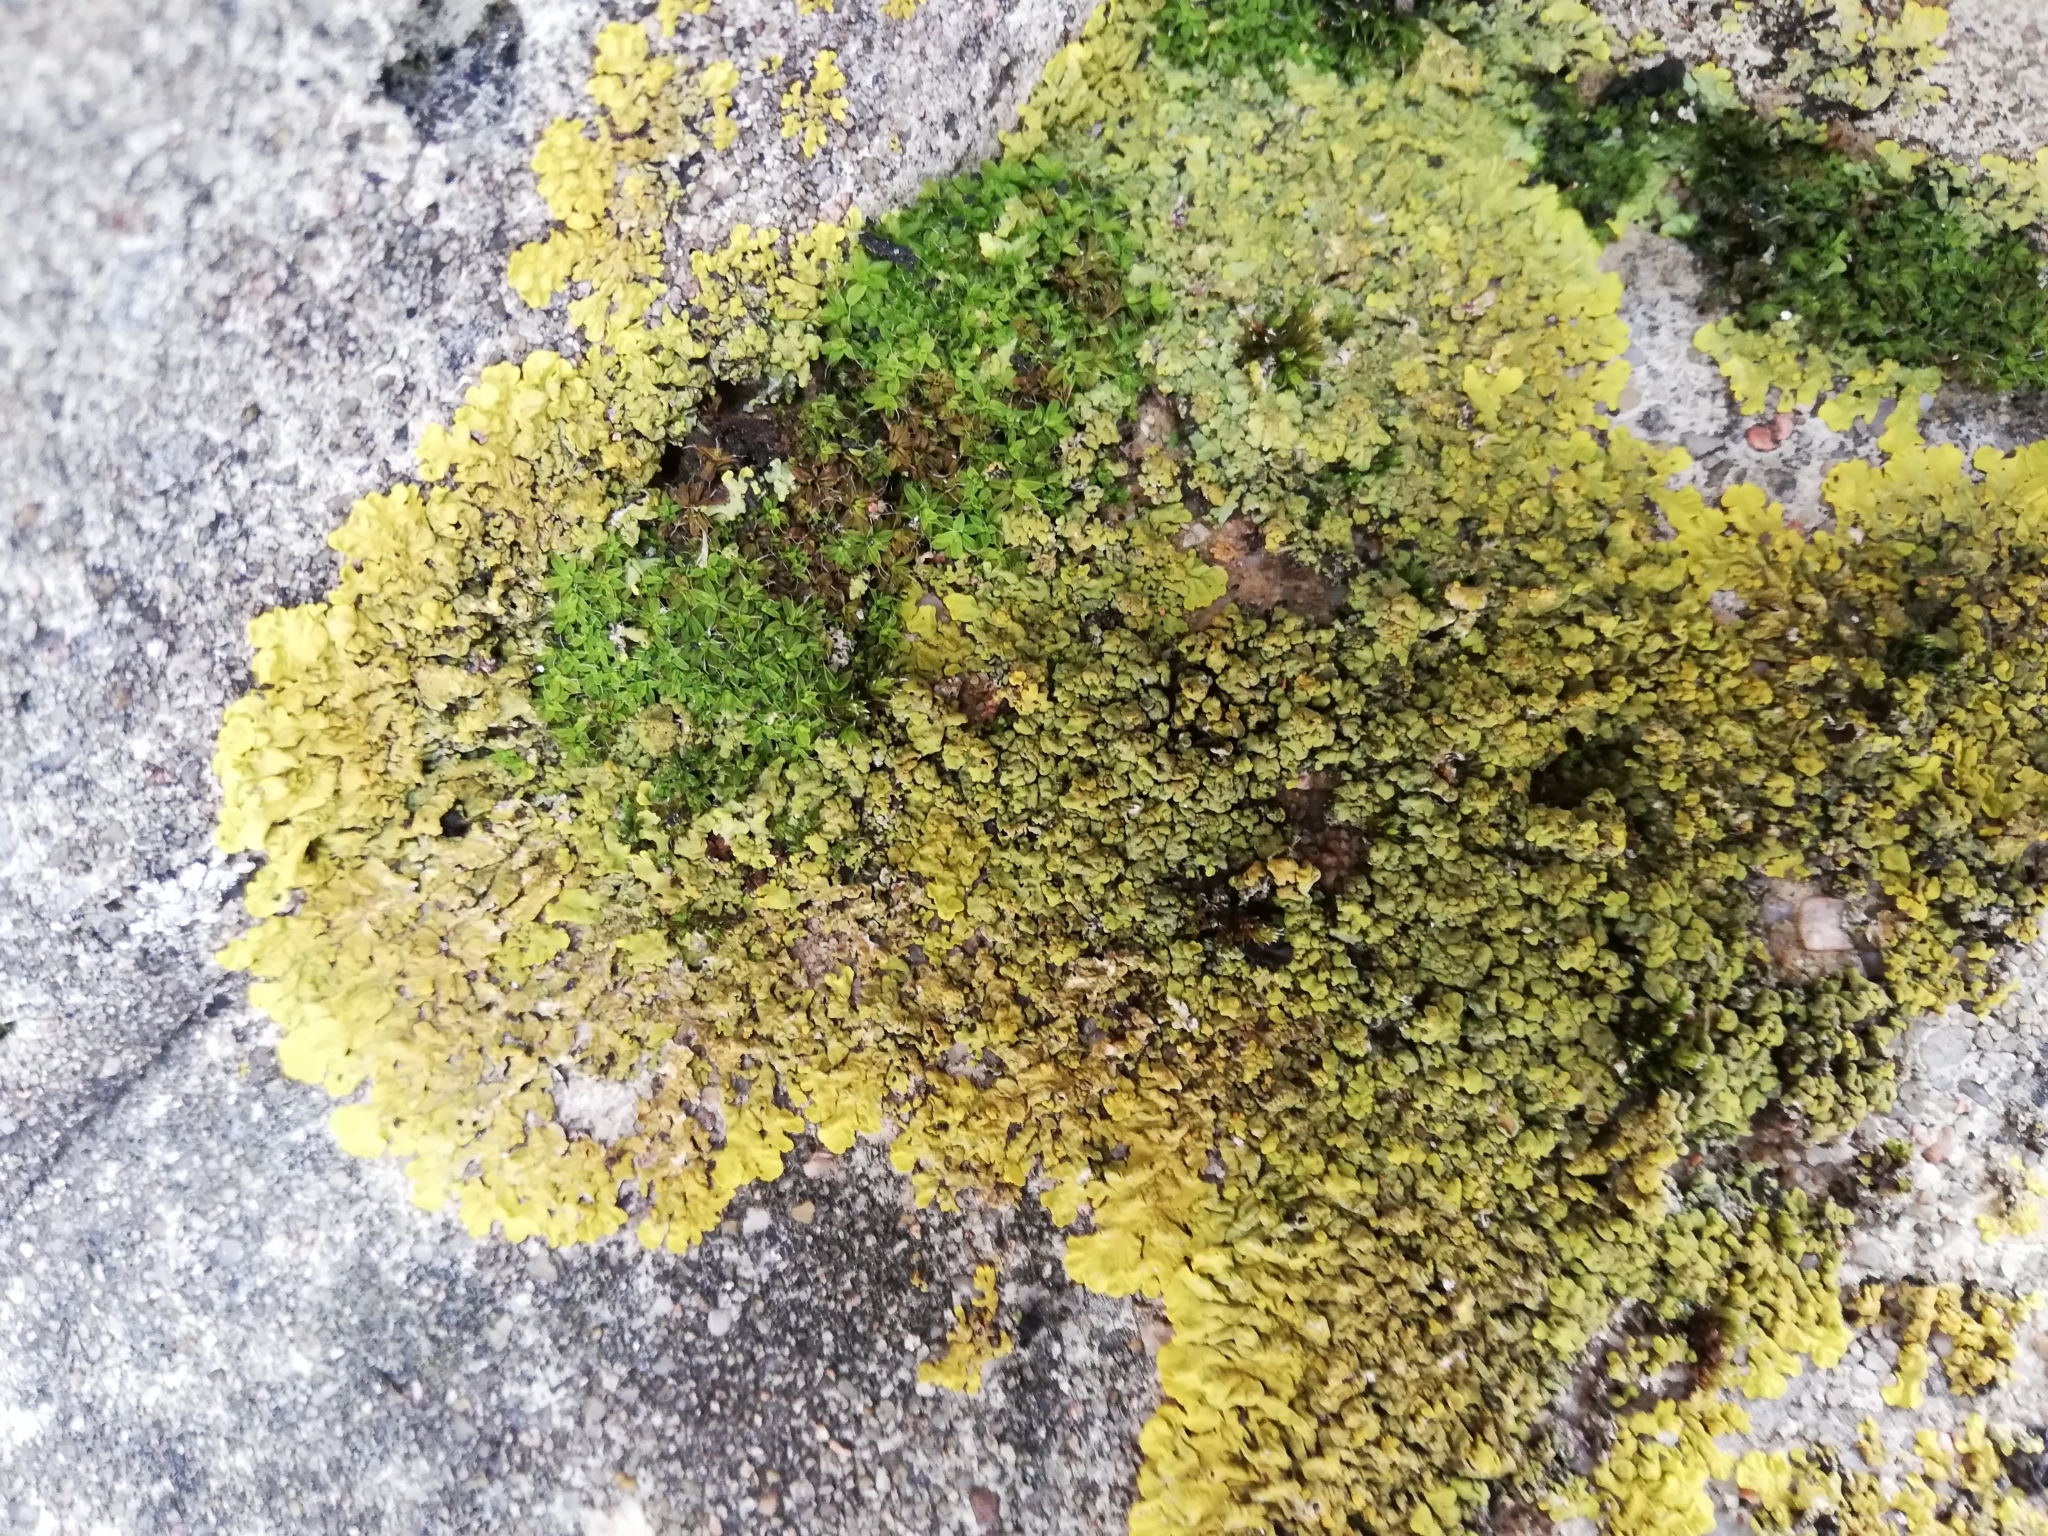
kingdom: Fungi
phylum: Ascomycota
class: Lecanoromycetes
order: Teloschistales
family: Teloschistaceae
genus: Xanthoria
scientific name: Xanthoria parietina
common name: Common orange lichen
